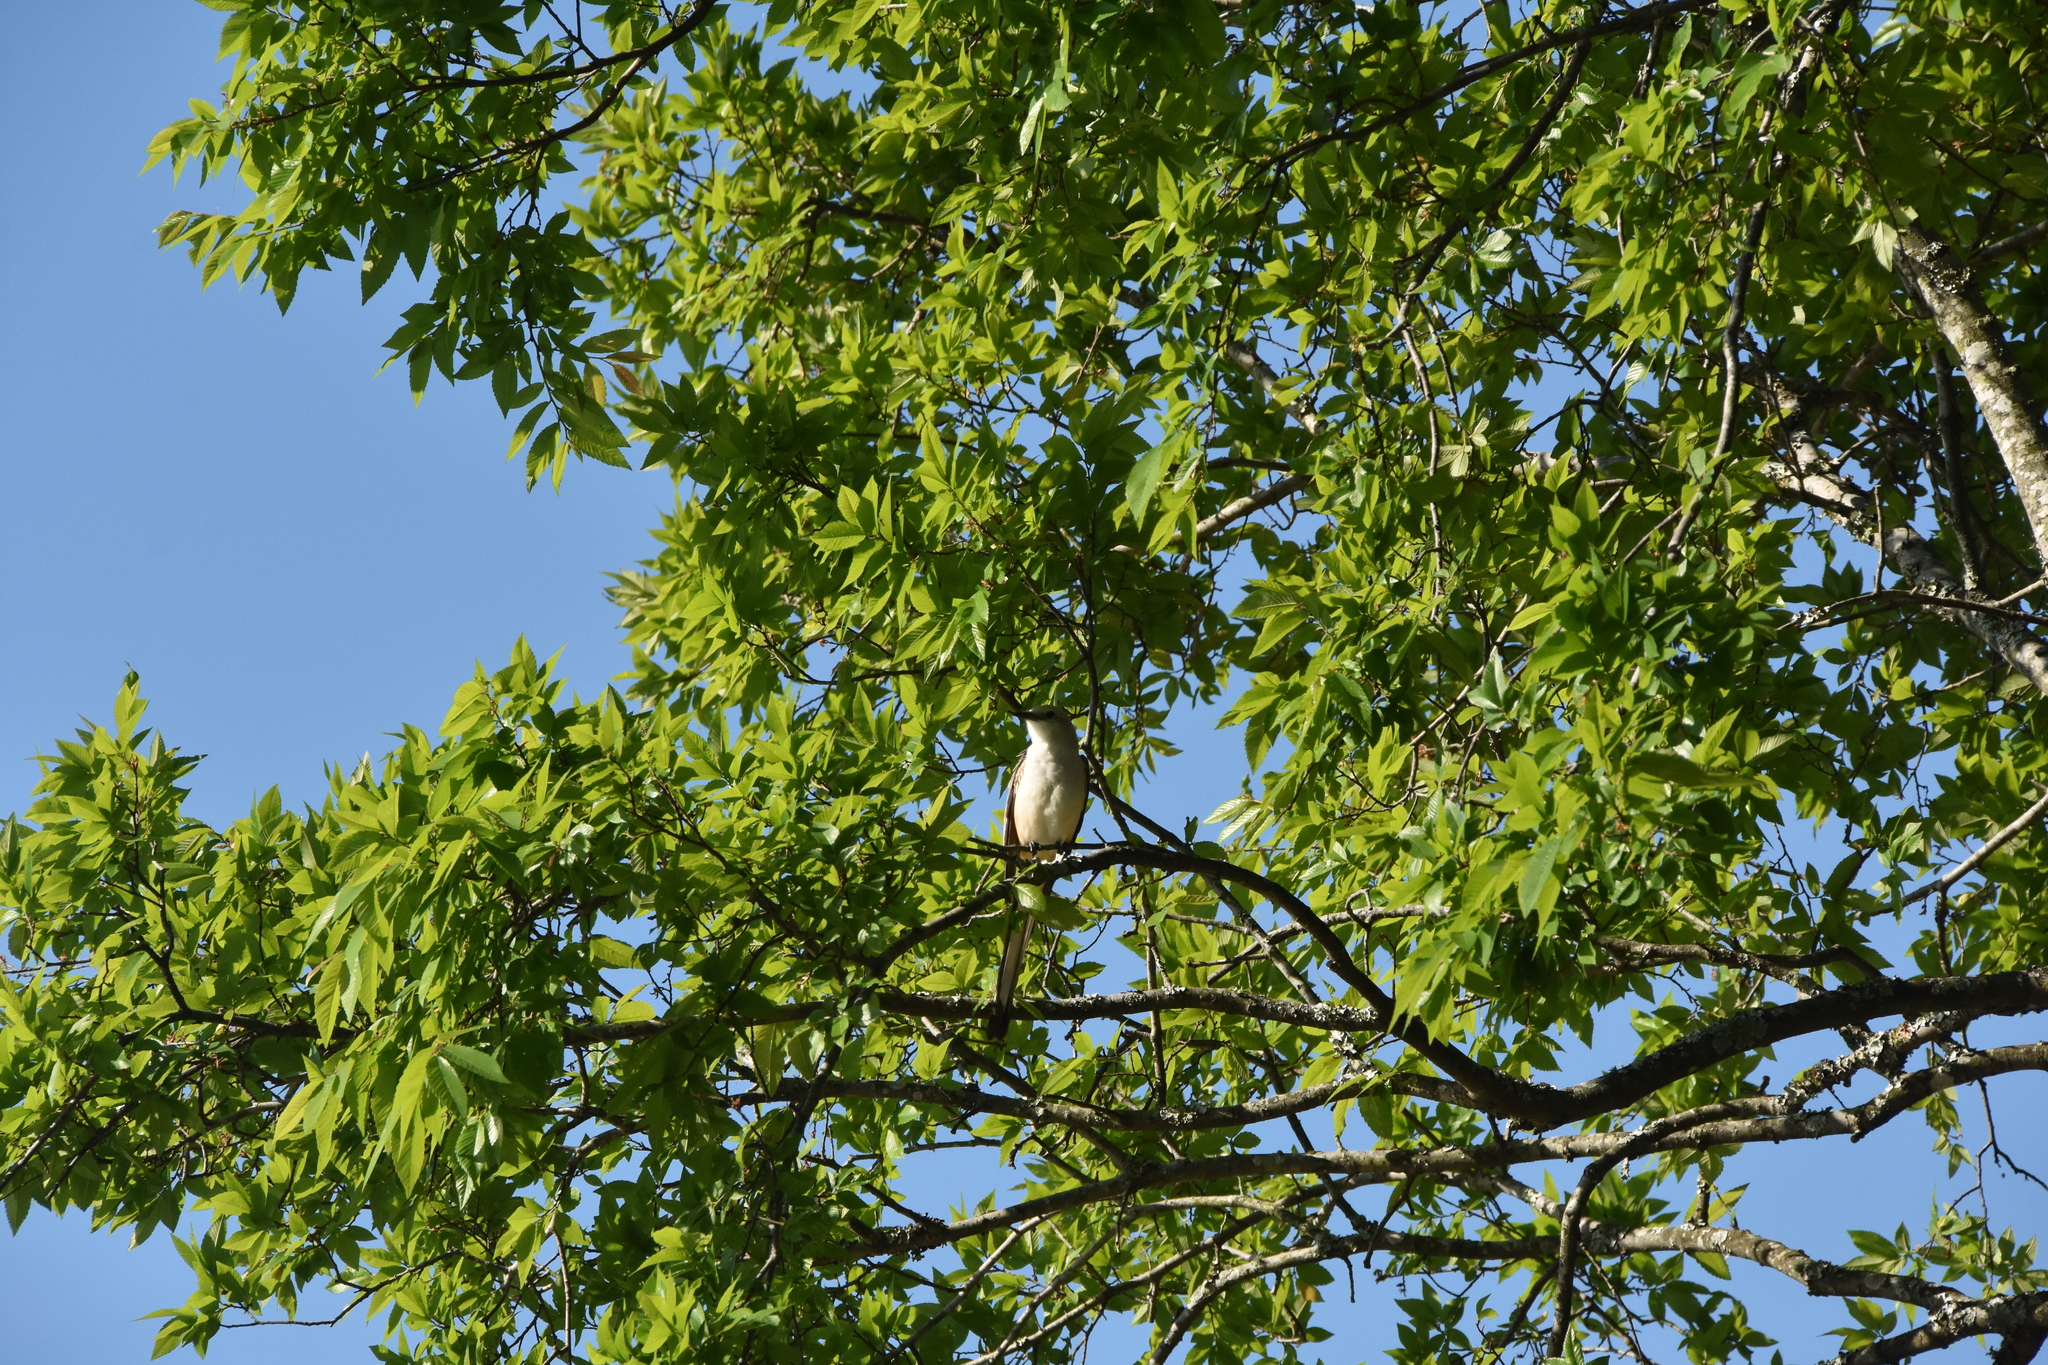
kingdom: Animalia
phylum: Chordata
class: Aves
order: Passeriformes
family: Tyrannidae
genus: Tyrannus
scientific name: Tyrannus forficatus
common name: Scissor-tailed flycatcher
